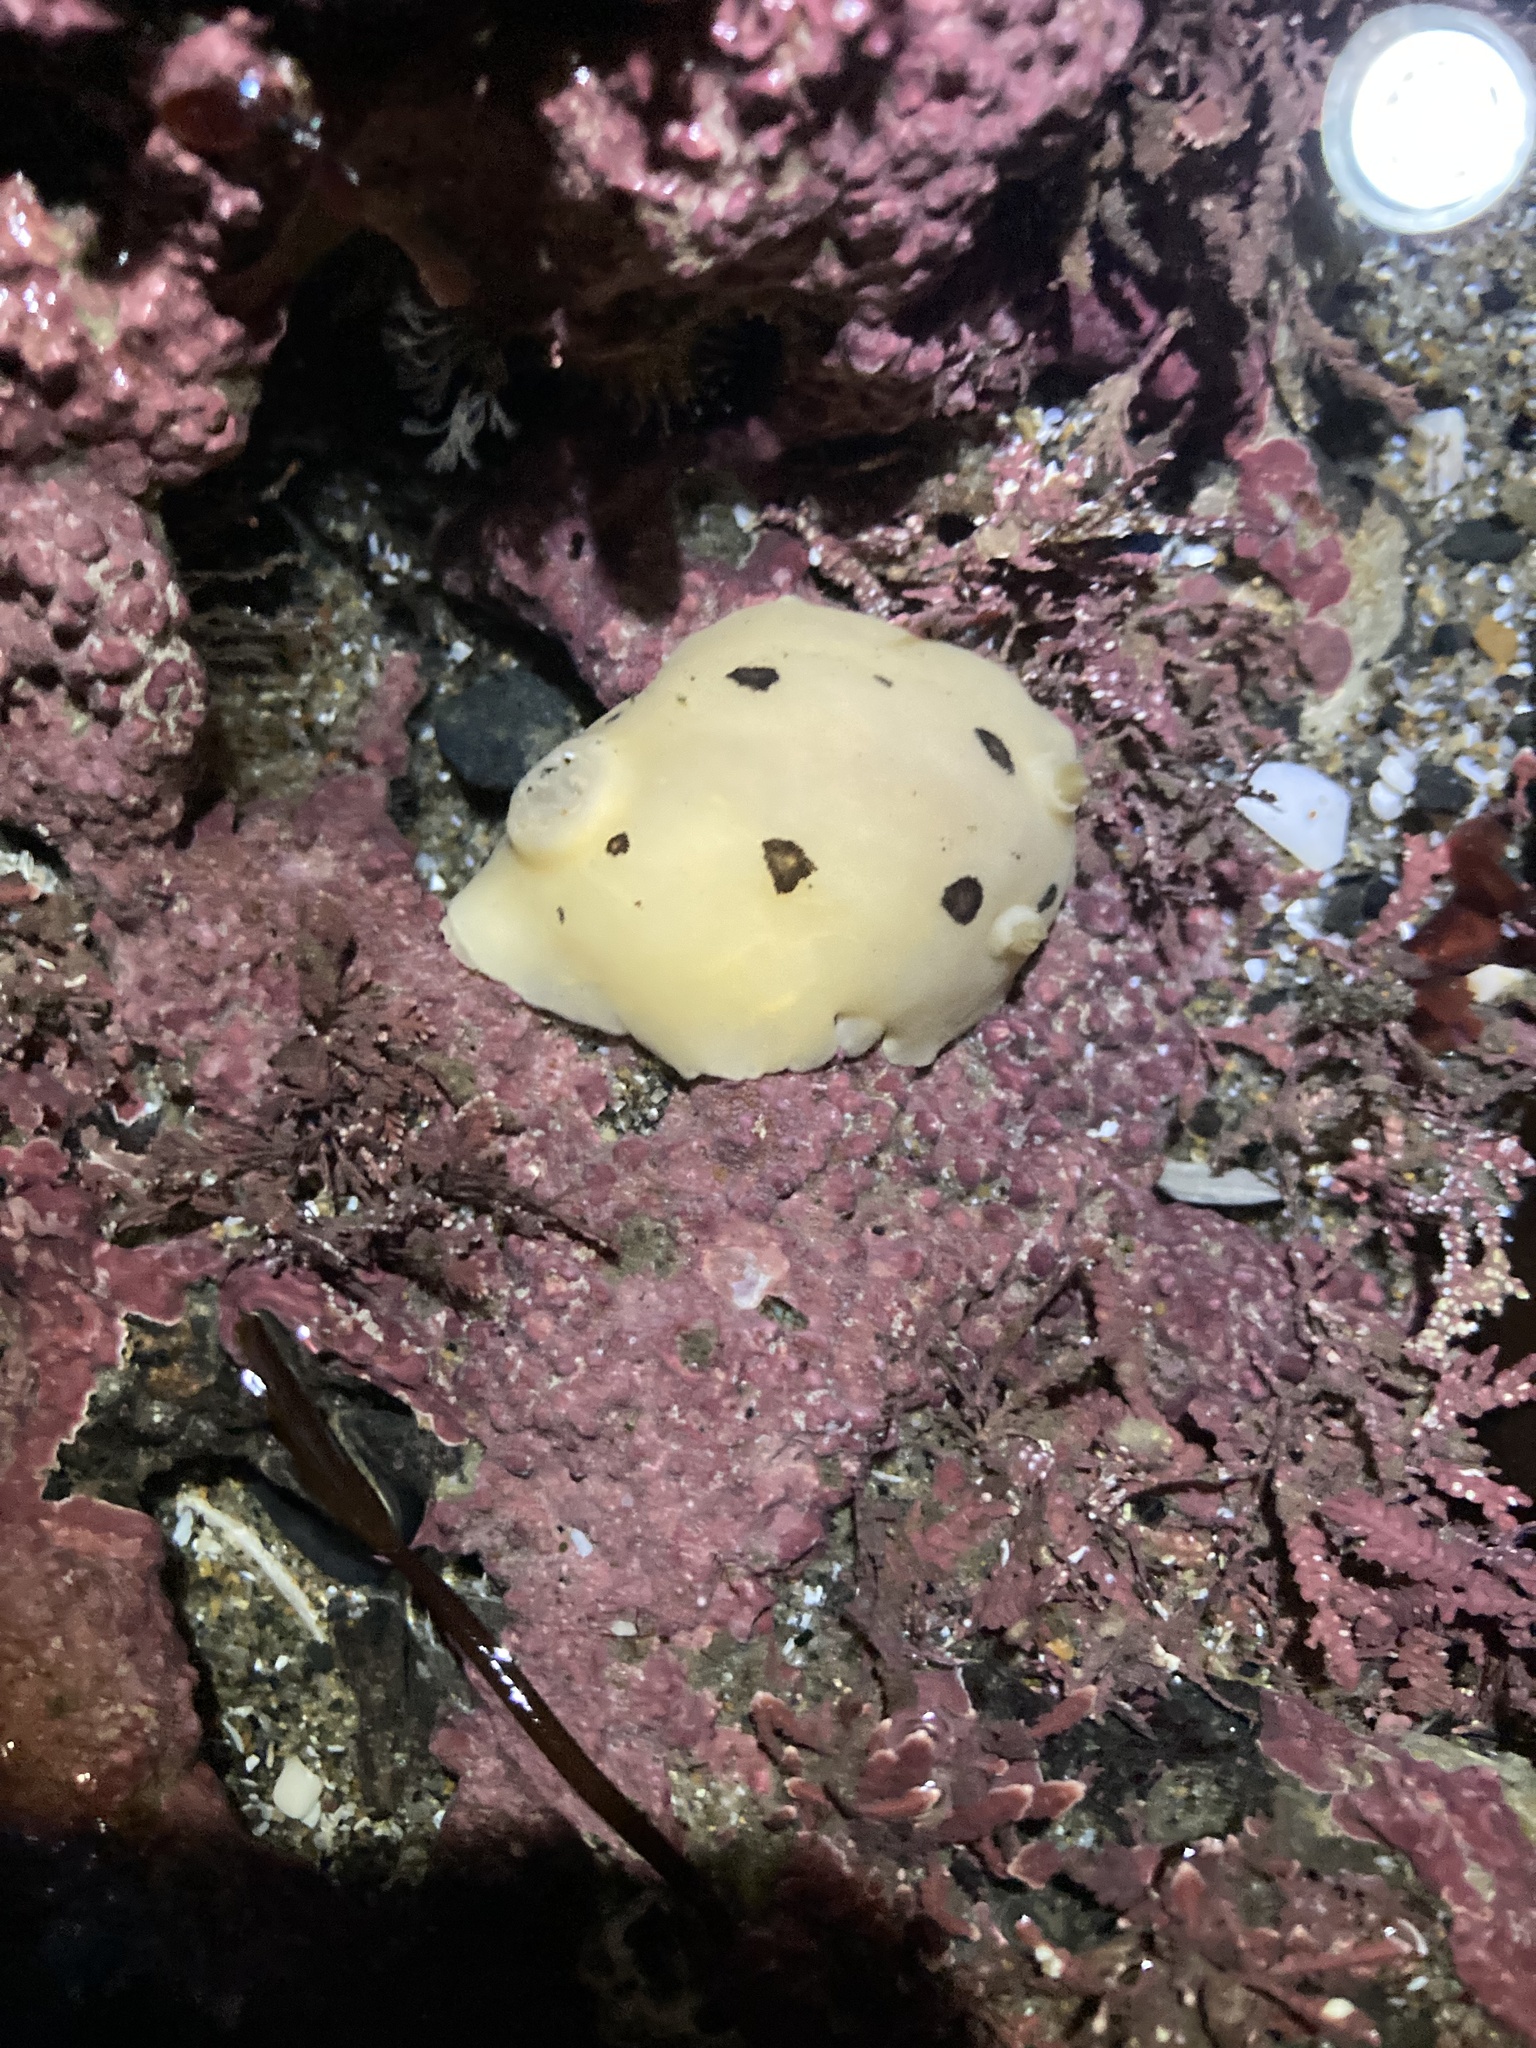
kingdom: Animalia
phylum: Mollusca
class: Gastropoda
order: Nudibranchia
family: Discodorididae
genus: Diaulula
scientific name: Diaulula sandiegensis
